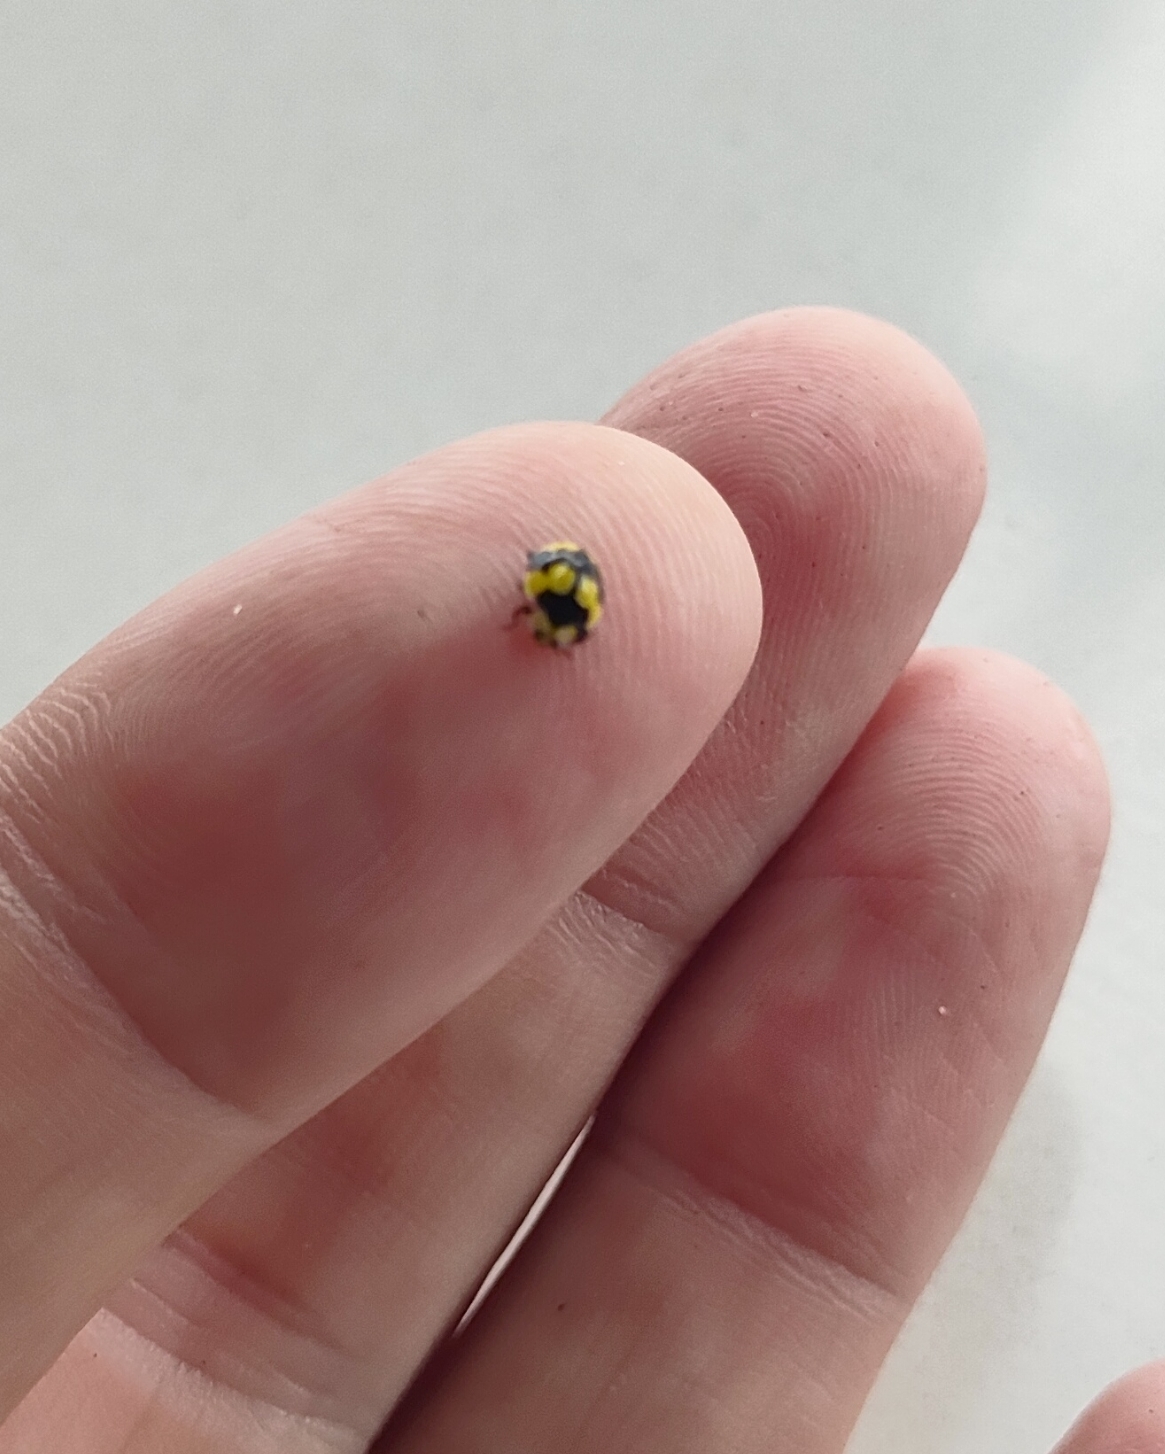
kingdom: Animalia
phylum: Arthropoda
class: Insecta
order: Coleoptera
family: Coccinellidae
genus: Illeis
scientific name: Illeis galbula
